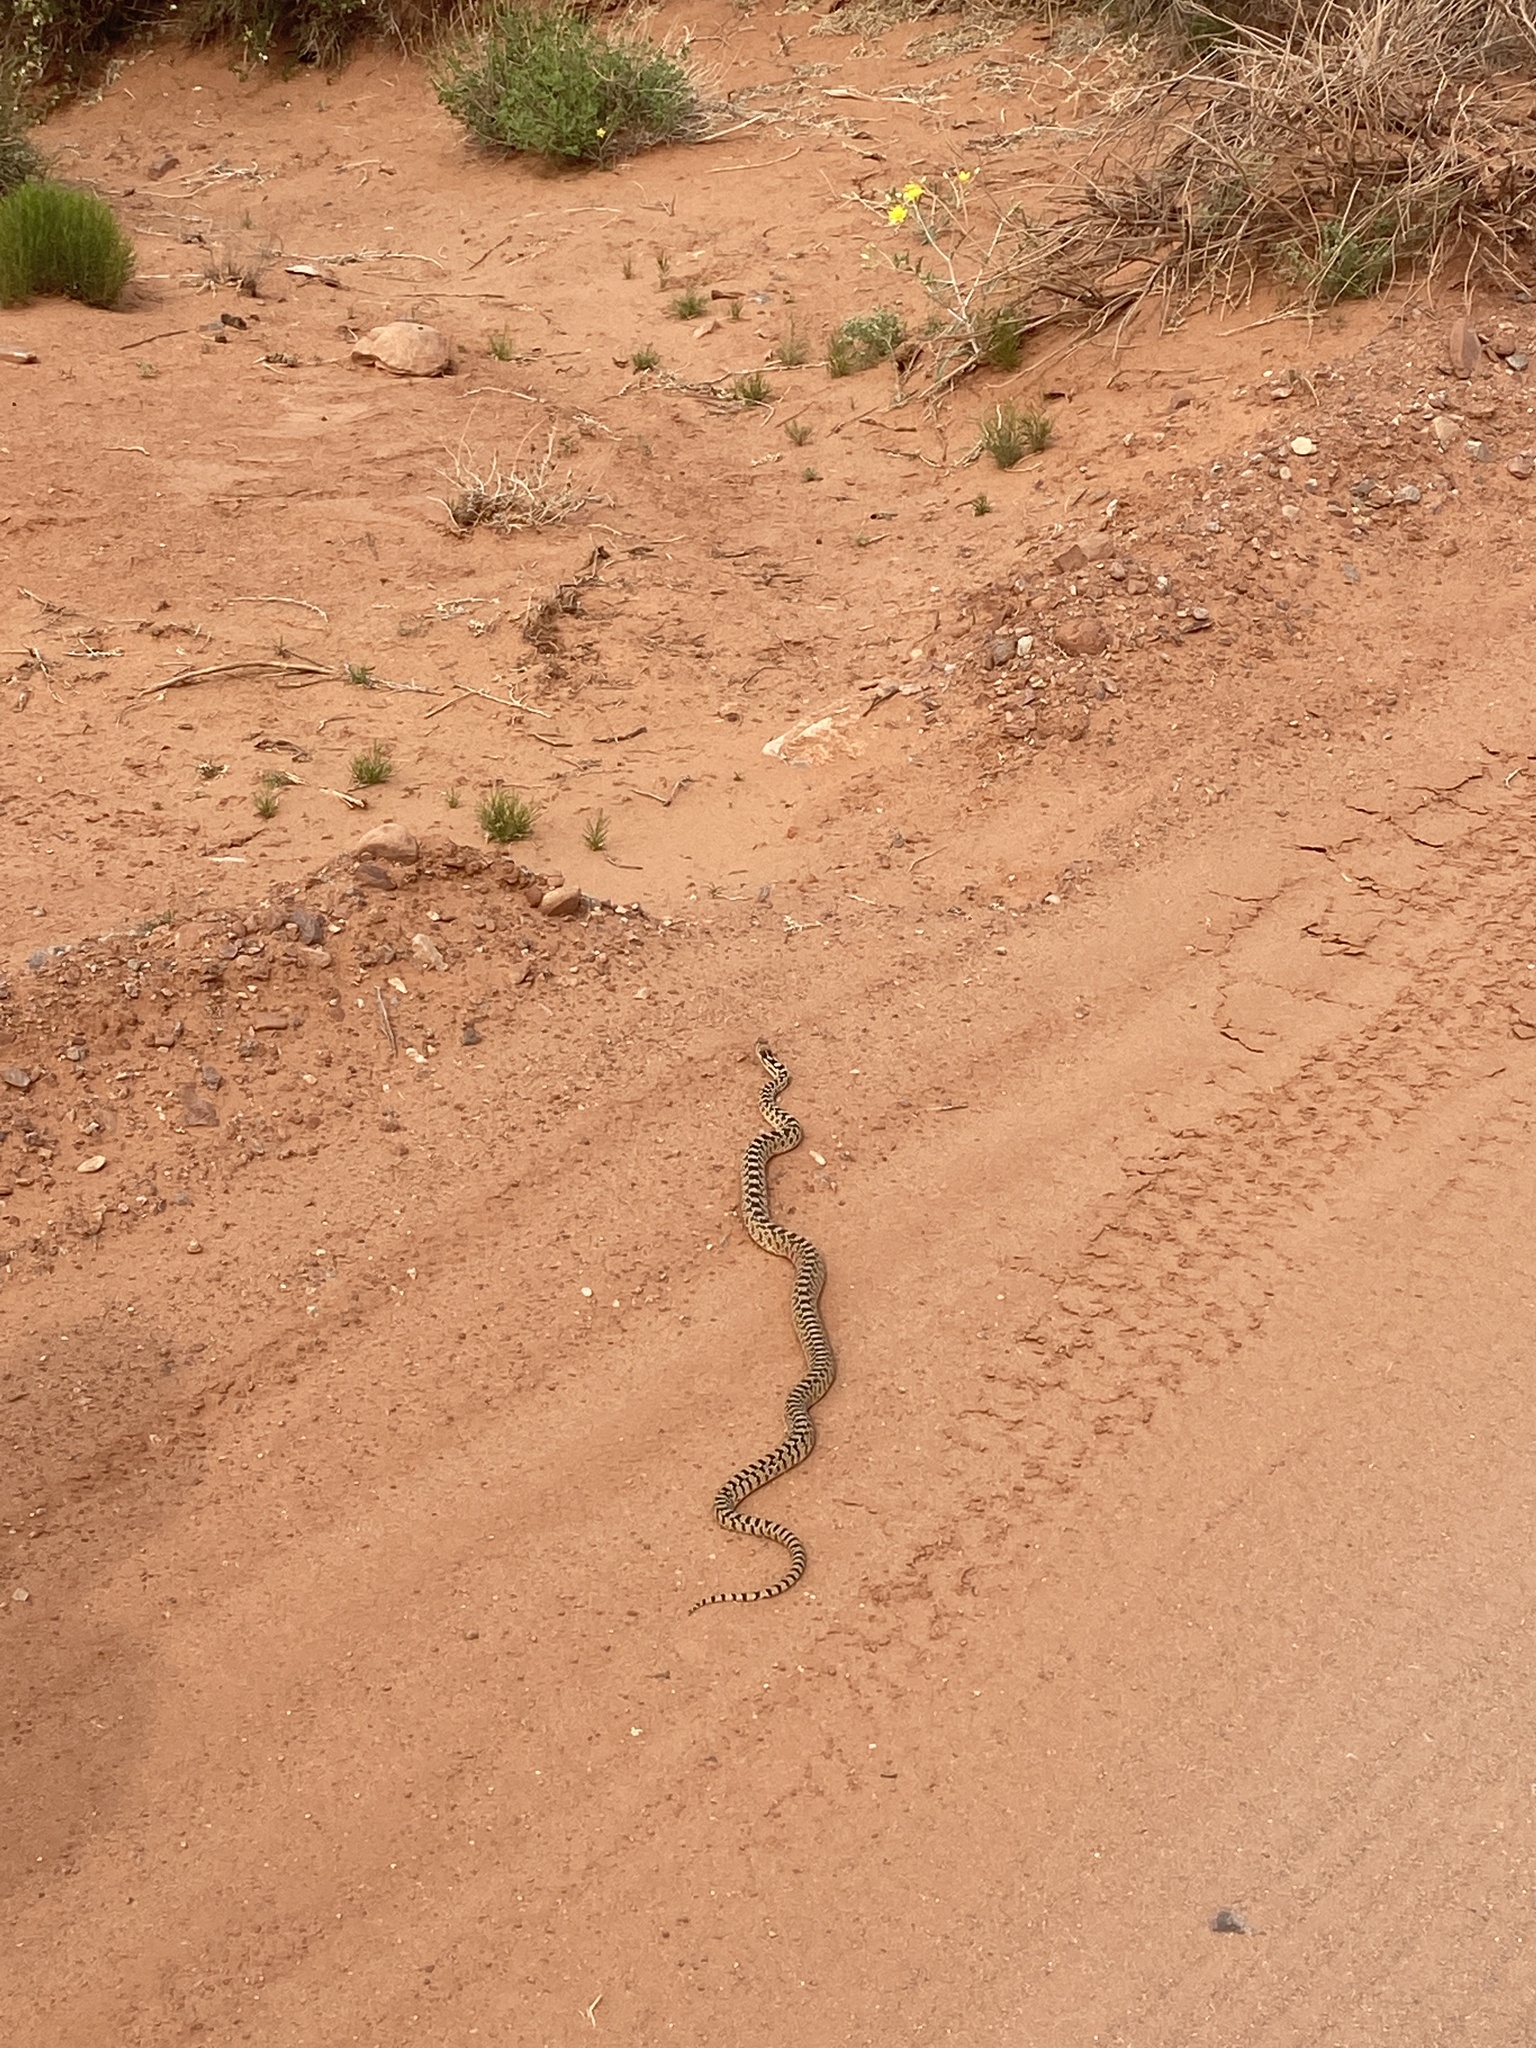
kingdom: Animalia
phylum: Chordata
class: Squamata
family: Colubridae
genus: Pituophis
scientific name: Pituophis catenifer
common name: Gopher snake
